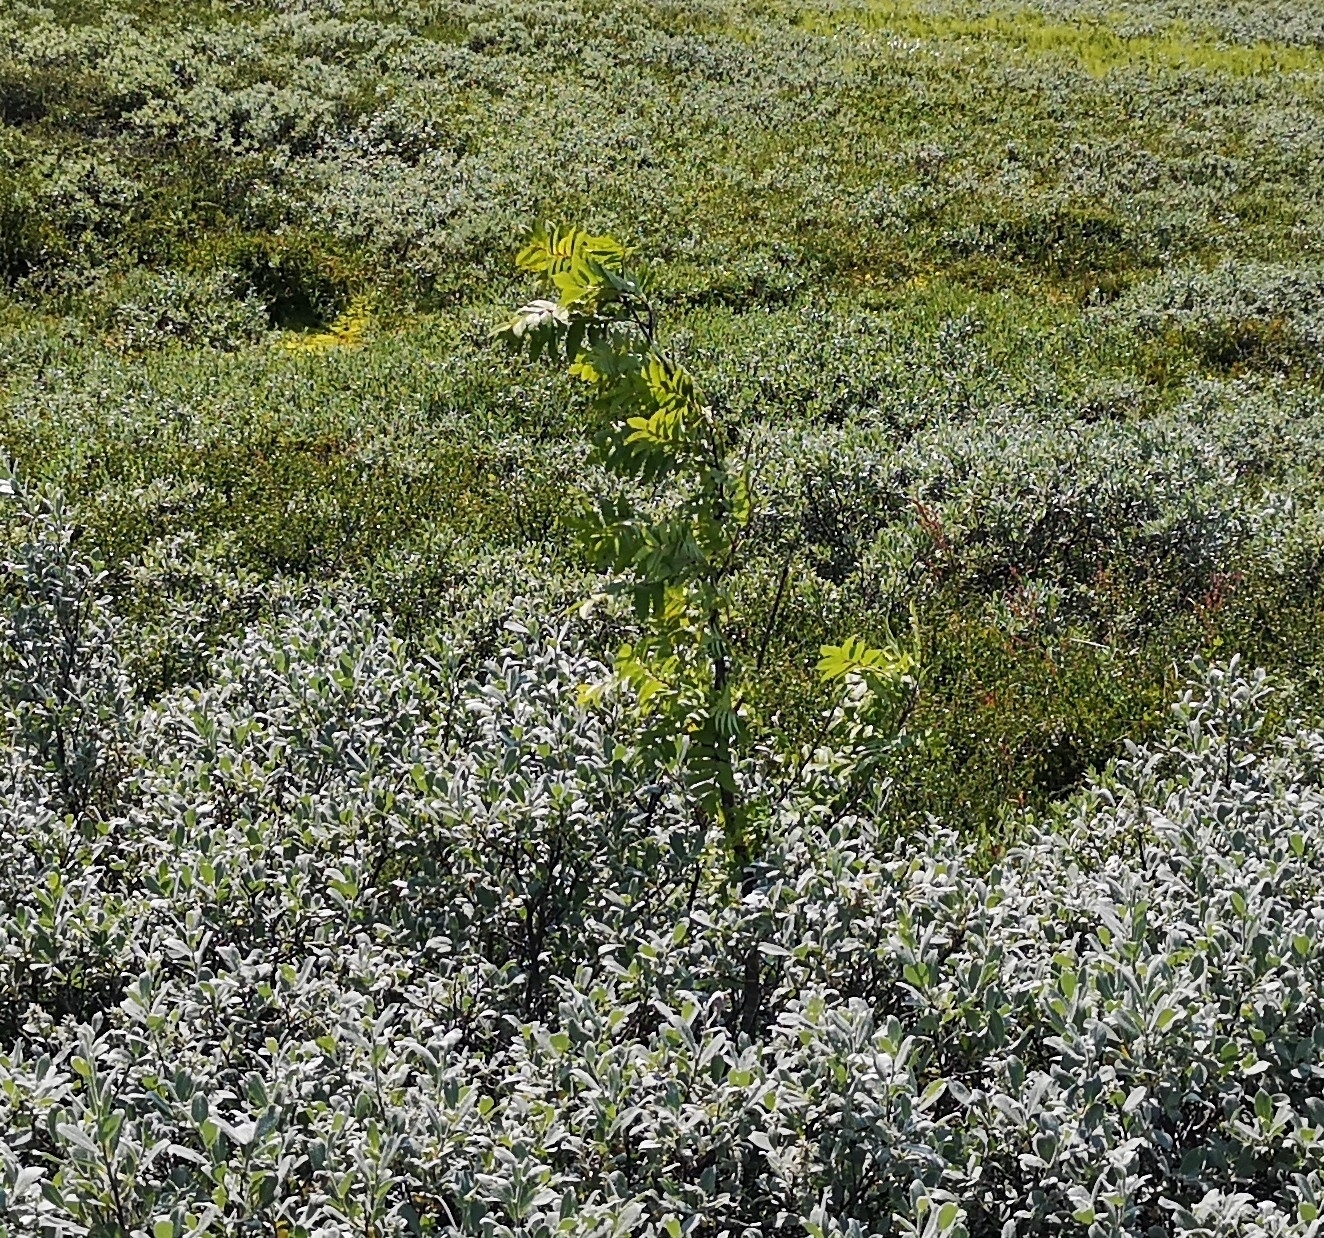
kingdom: Plantae
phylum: Tracheophyta
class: Magnoliopsida
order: Rosales
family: Rosaceae
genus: Sorbus
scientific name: Sorbus aucuparia
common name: Rowan
